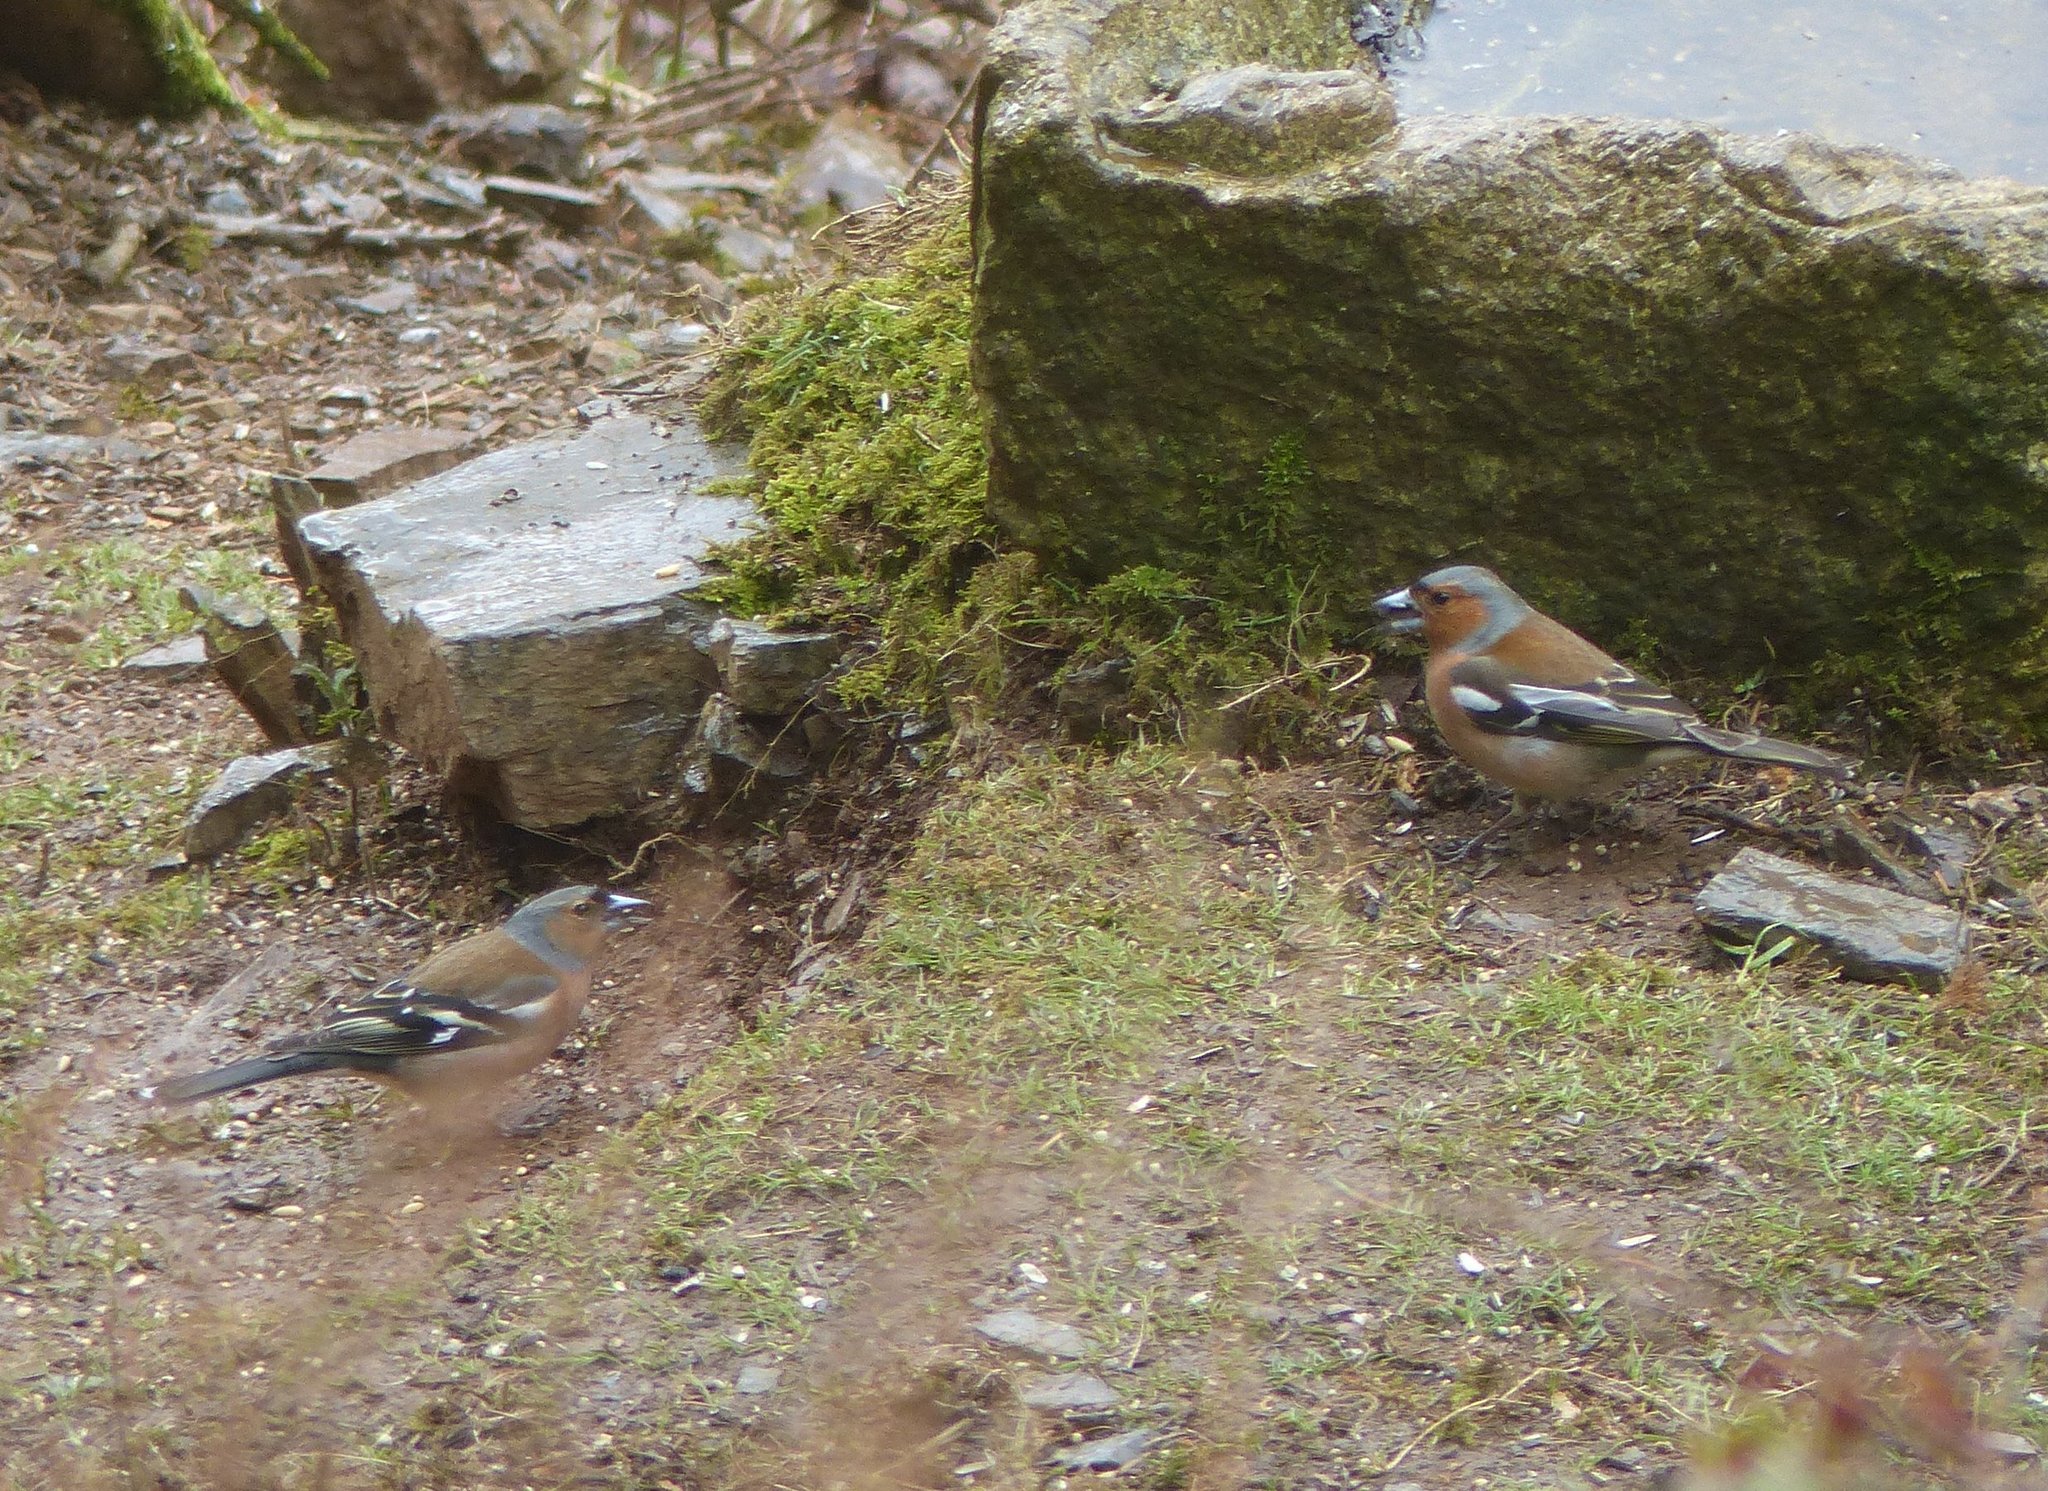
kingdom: Animalia
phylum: Chordata
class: Aves
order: Passeriformes
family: Fringillidae
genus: Fringilla
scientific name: Fringilla coelebs
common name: Common chaffinch
